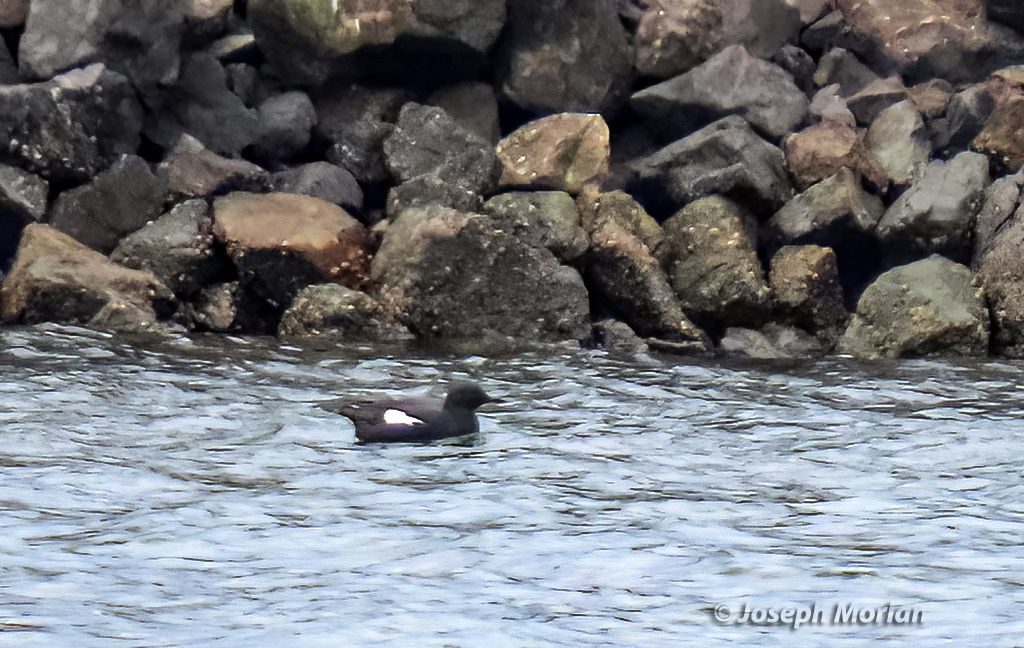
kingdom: Animalia
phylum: Chordata
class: Aves
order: Charadriiformes
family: Alcidae
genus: Cepphus
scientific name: Cepphus columba
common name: Pigeon guillemot
